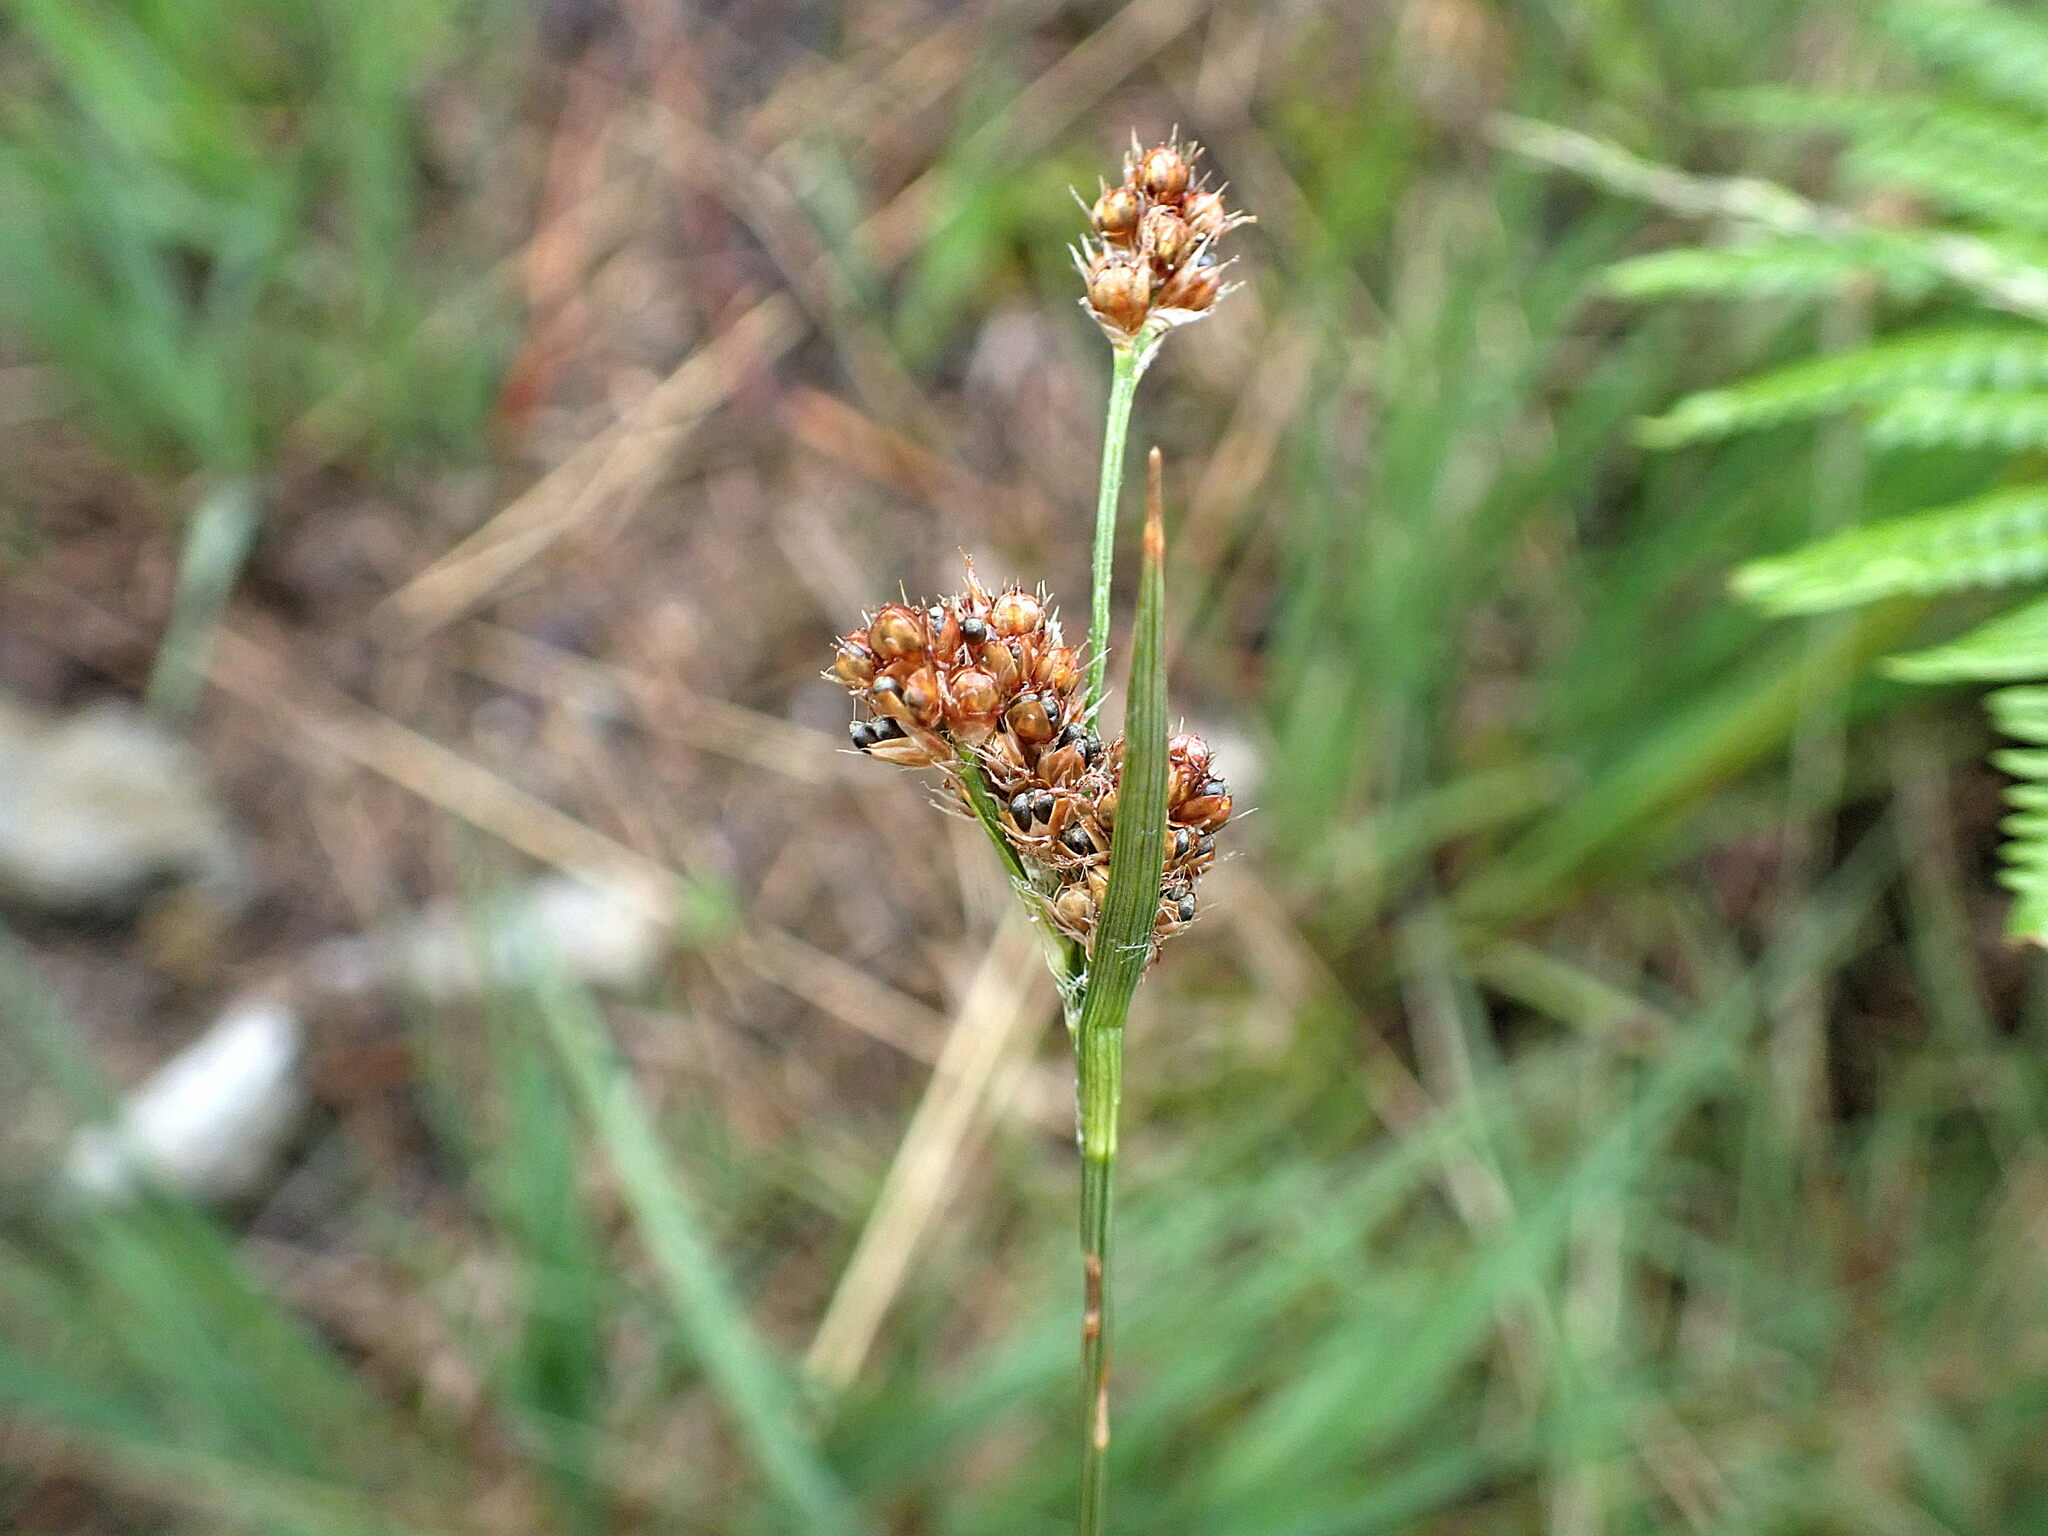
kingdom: Plantae
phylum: Tracheophyta
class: Liliopsida
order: Poales
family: Juncaceae
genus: Luzula
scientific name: Luzula multiflora
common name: Heath wood-rush
